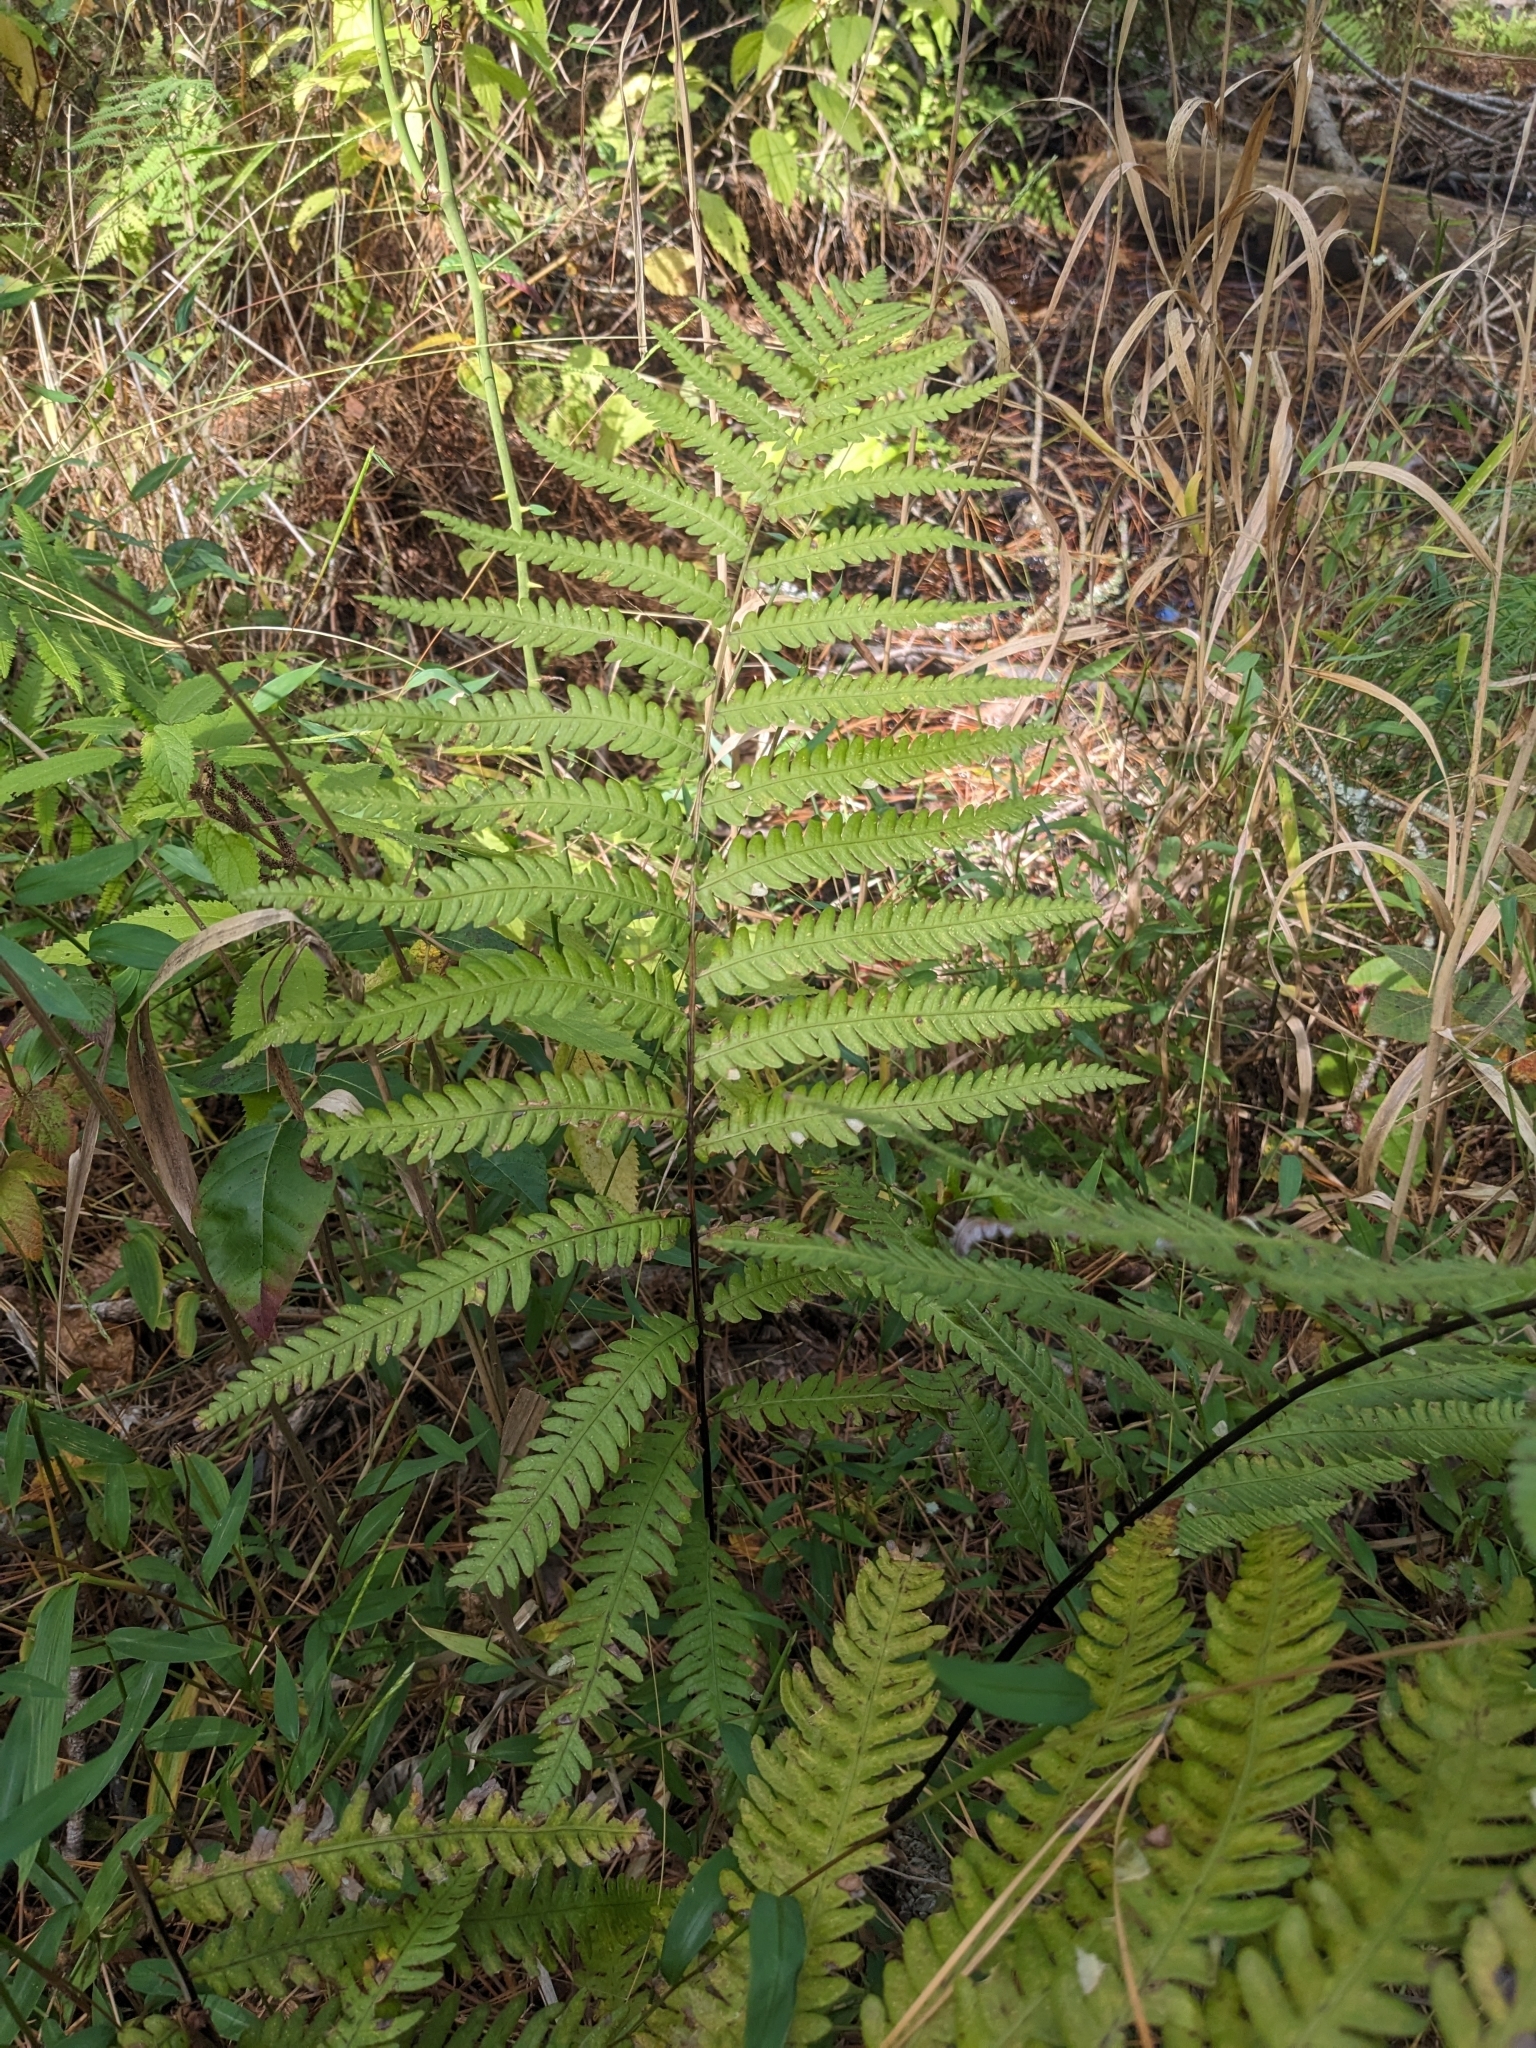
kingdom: Plantae
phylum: Tracheophyta
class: Polypodiopsida
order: Polypodiales
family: Blechnaceae
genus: Anchistea
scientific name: Anchistea virginica
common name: Virginia chain fern
